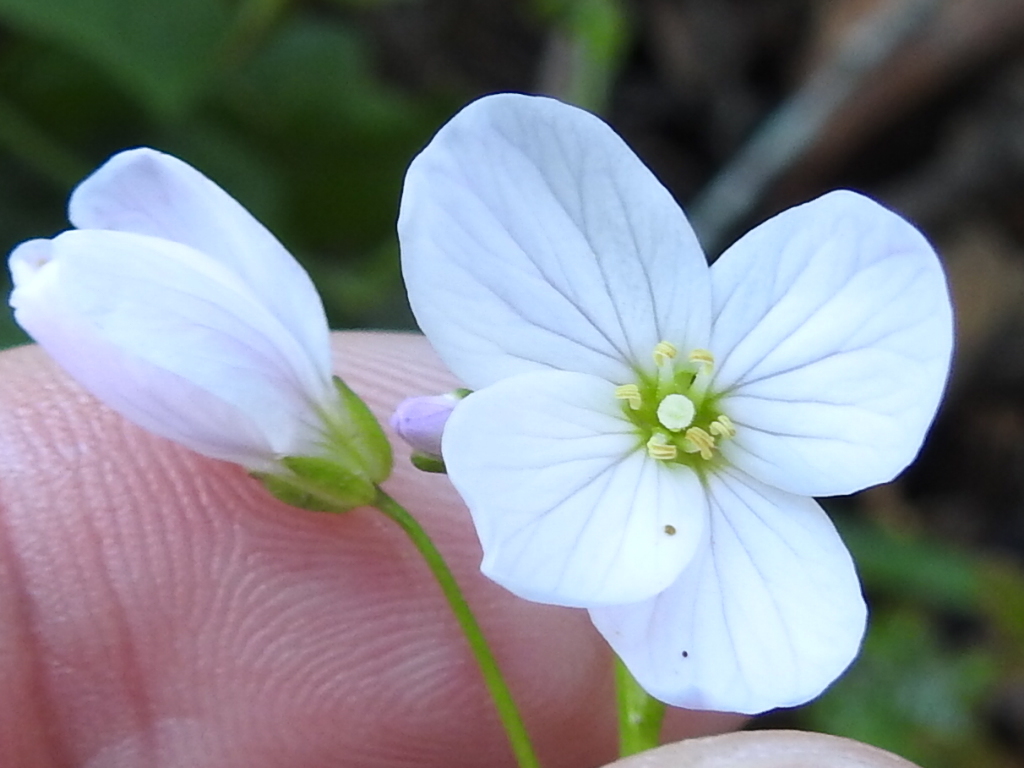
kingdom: Plantae
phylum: Tracheophyta
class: Magnoliopsida
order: Brassicales
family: Brassicaceae
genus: Cardamine
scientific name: Cardamine californica
